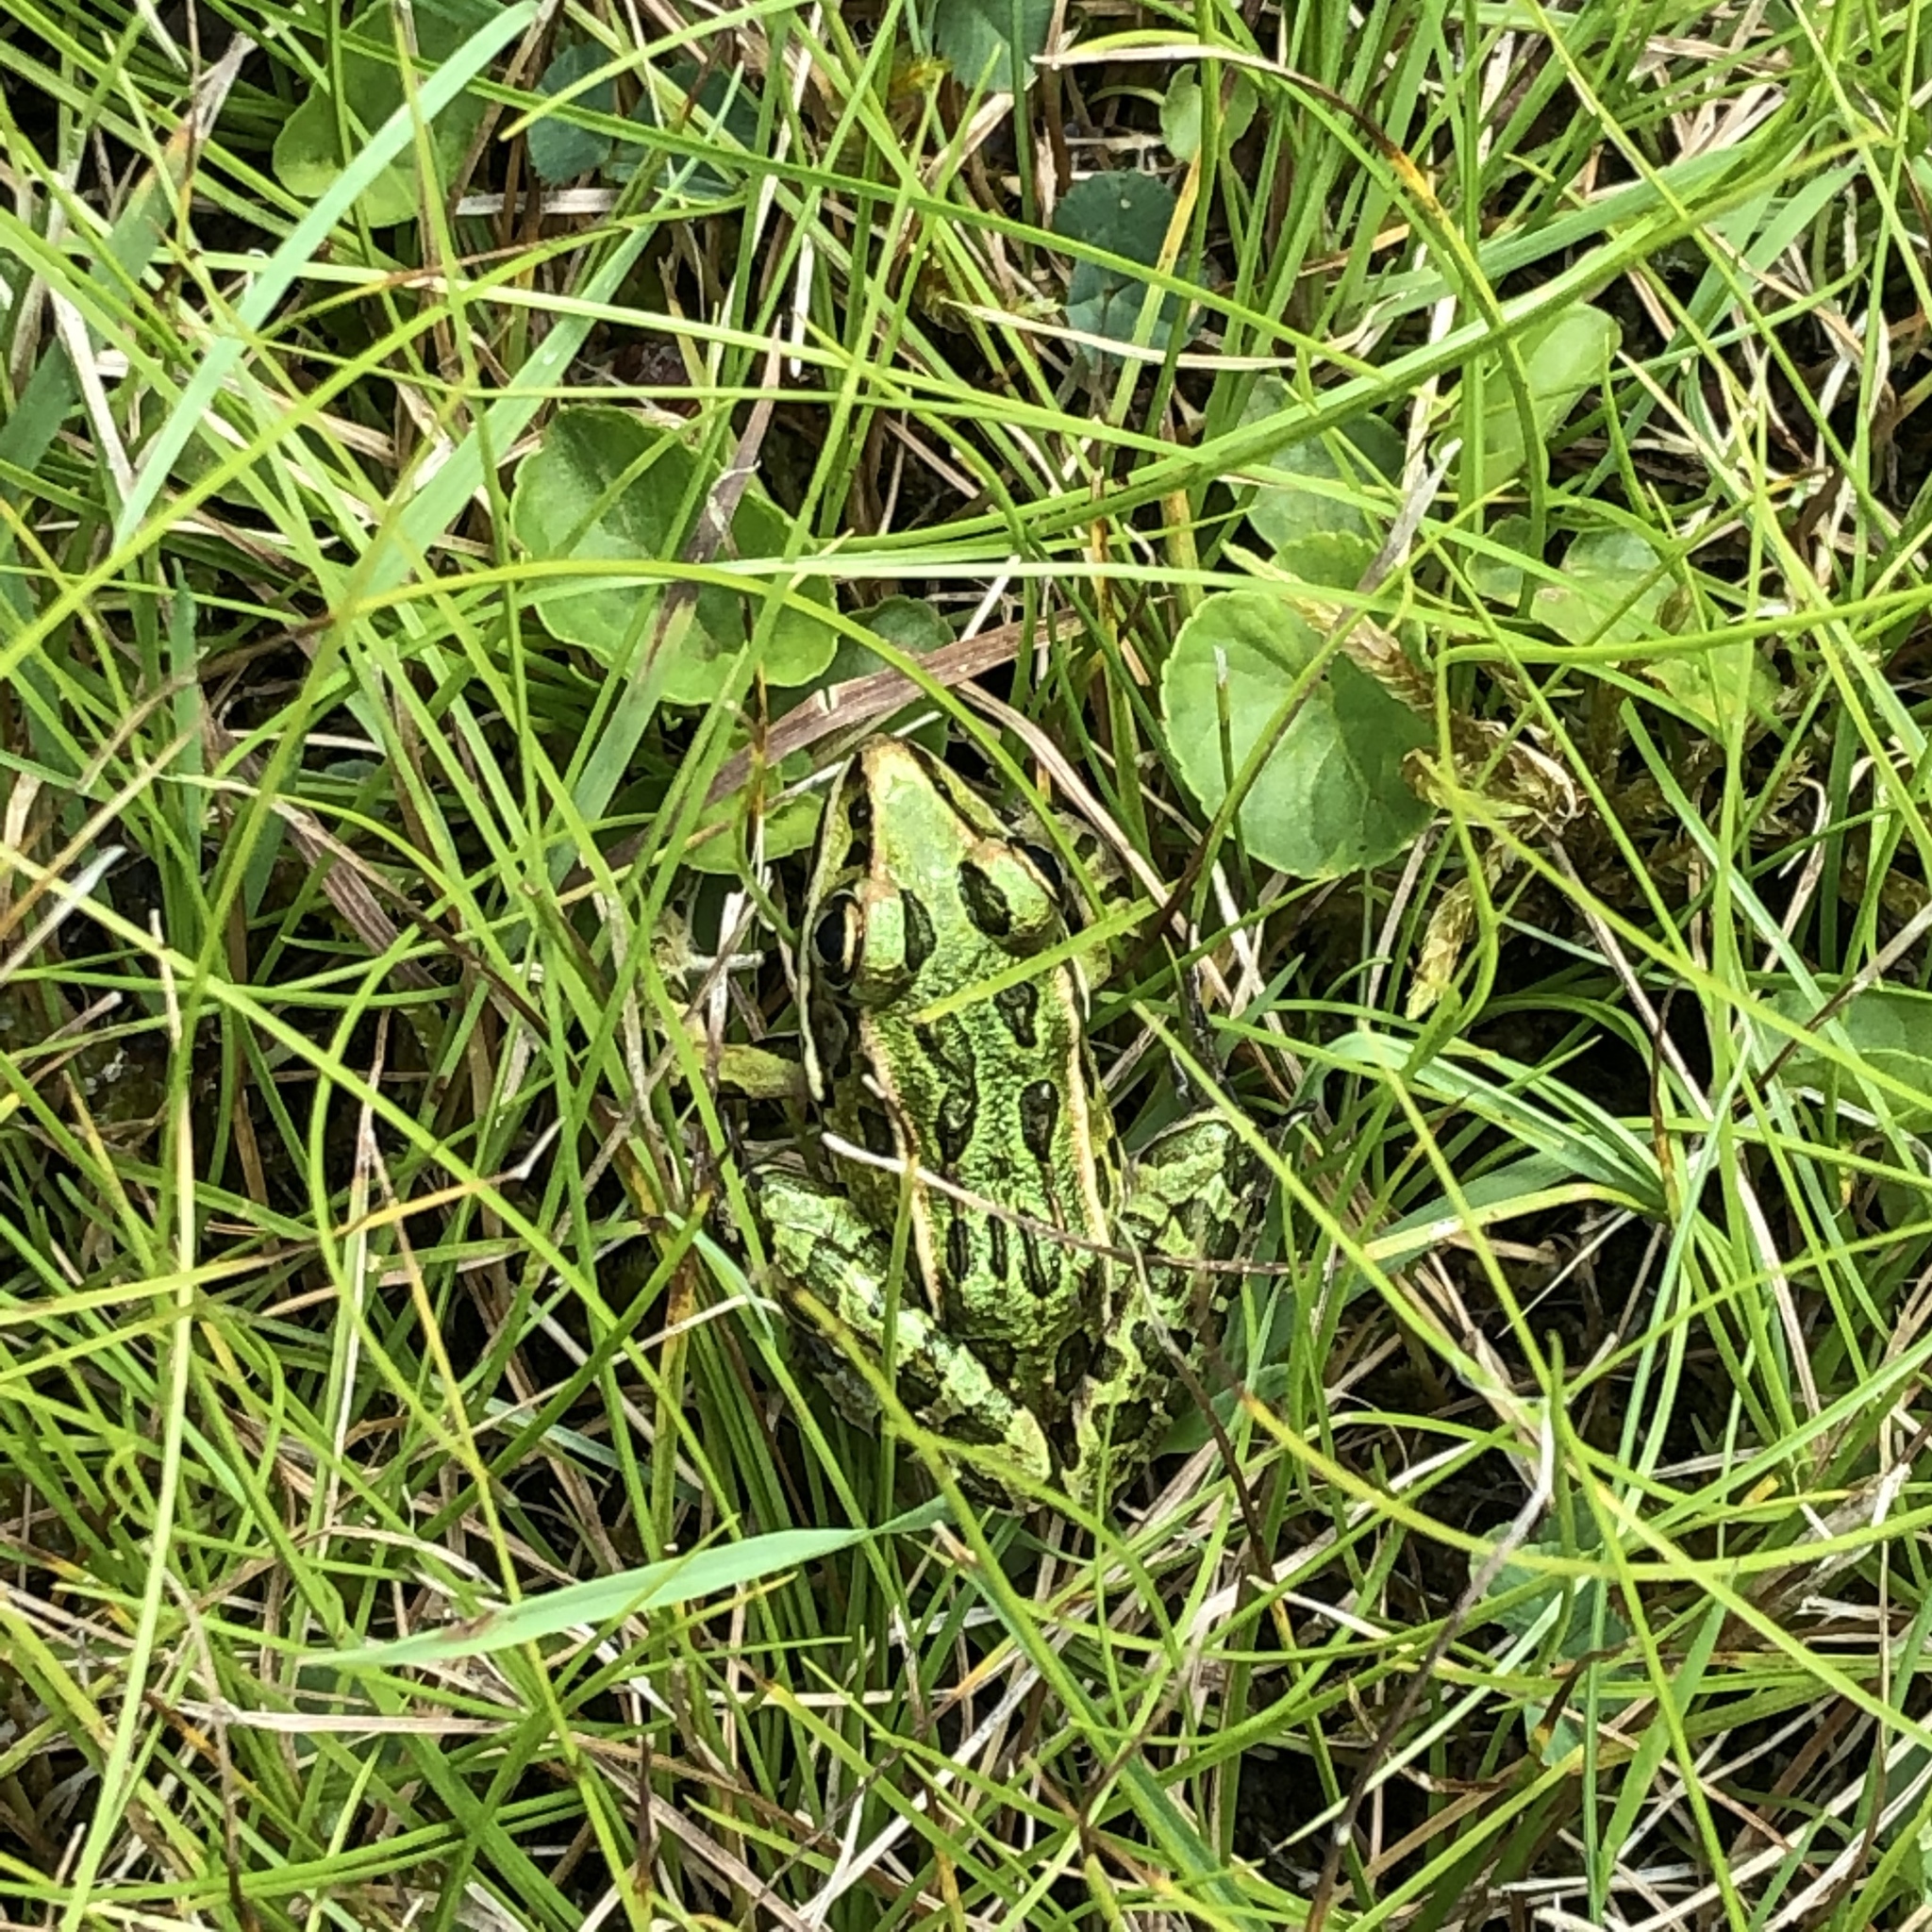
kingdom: Animalia
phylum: Chordata
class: Amphibia
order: Anura
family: Ranidae
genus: Lithobates
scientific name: Lithobates pipiens
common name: Northern leopard frog
